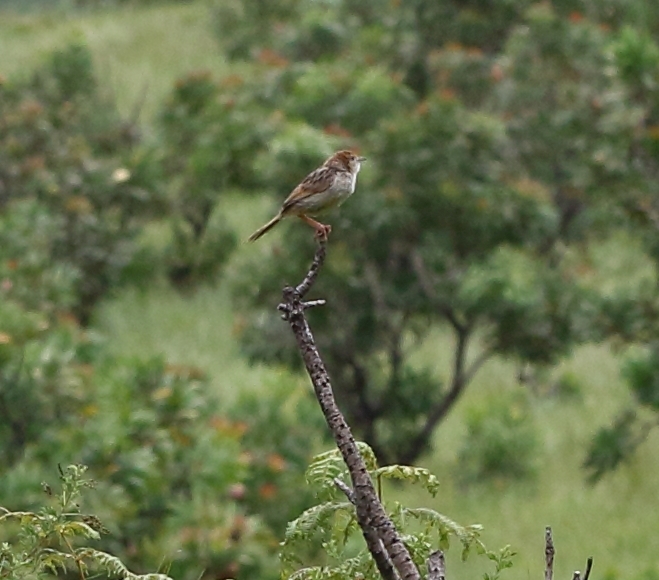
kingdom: Animalia
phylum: Chordata
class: Aves
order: Passeriformes
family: Cisticolidae
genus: Cisticola
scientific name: Cisticola lais
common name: Wailing cisticola
